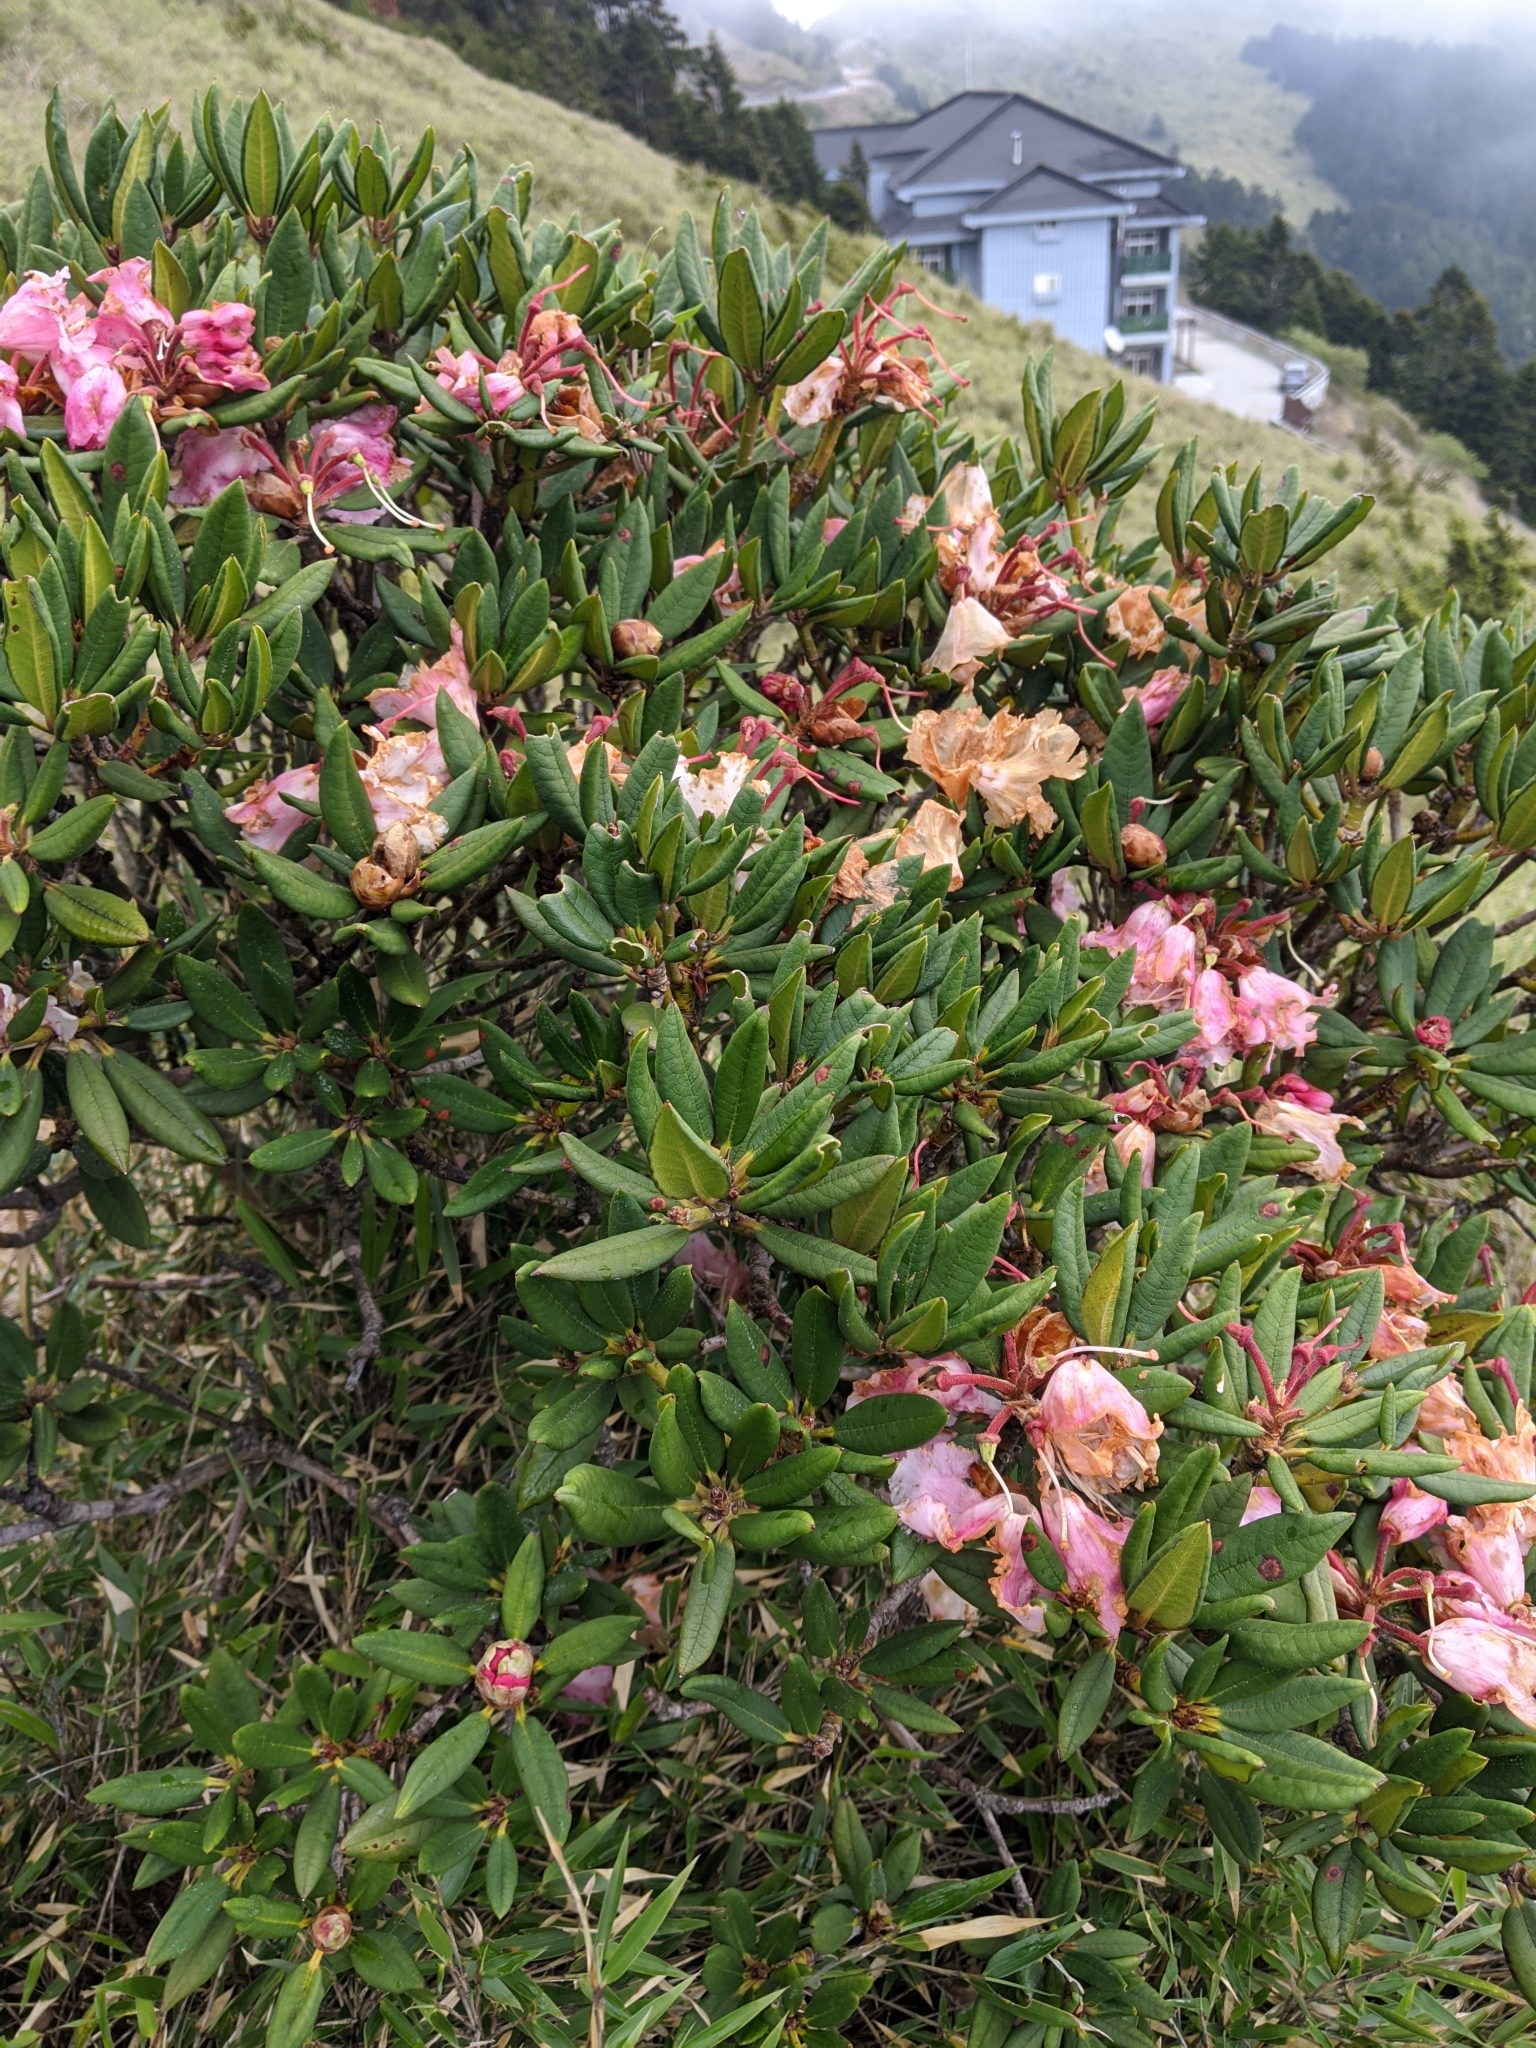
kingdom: Plantae
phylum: Tracheophyta
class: Magnoliopsida
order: Ericales
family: Ericaceae
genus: Rhododendron
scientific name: Rhododendron pseudochrysanthum
